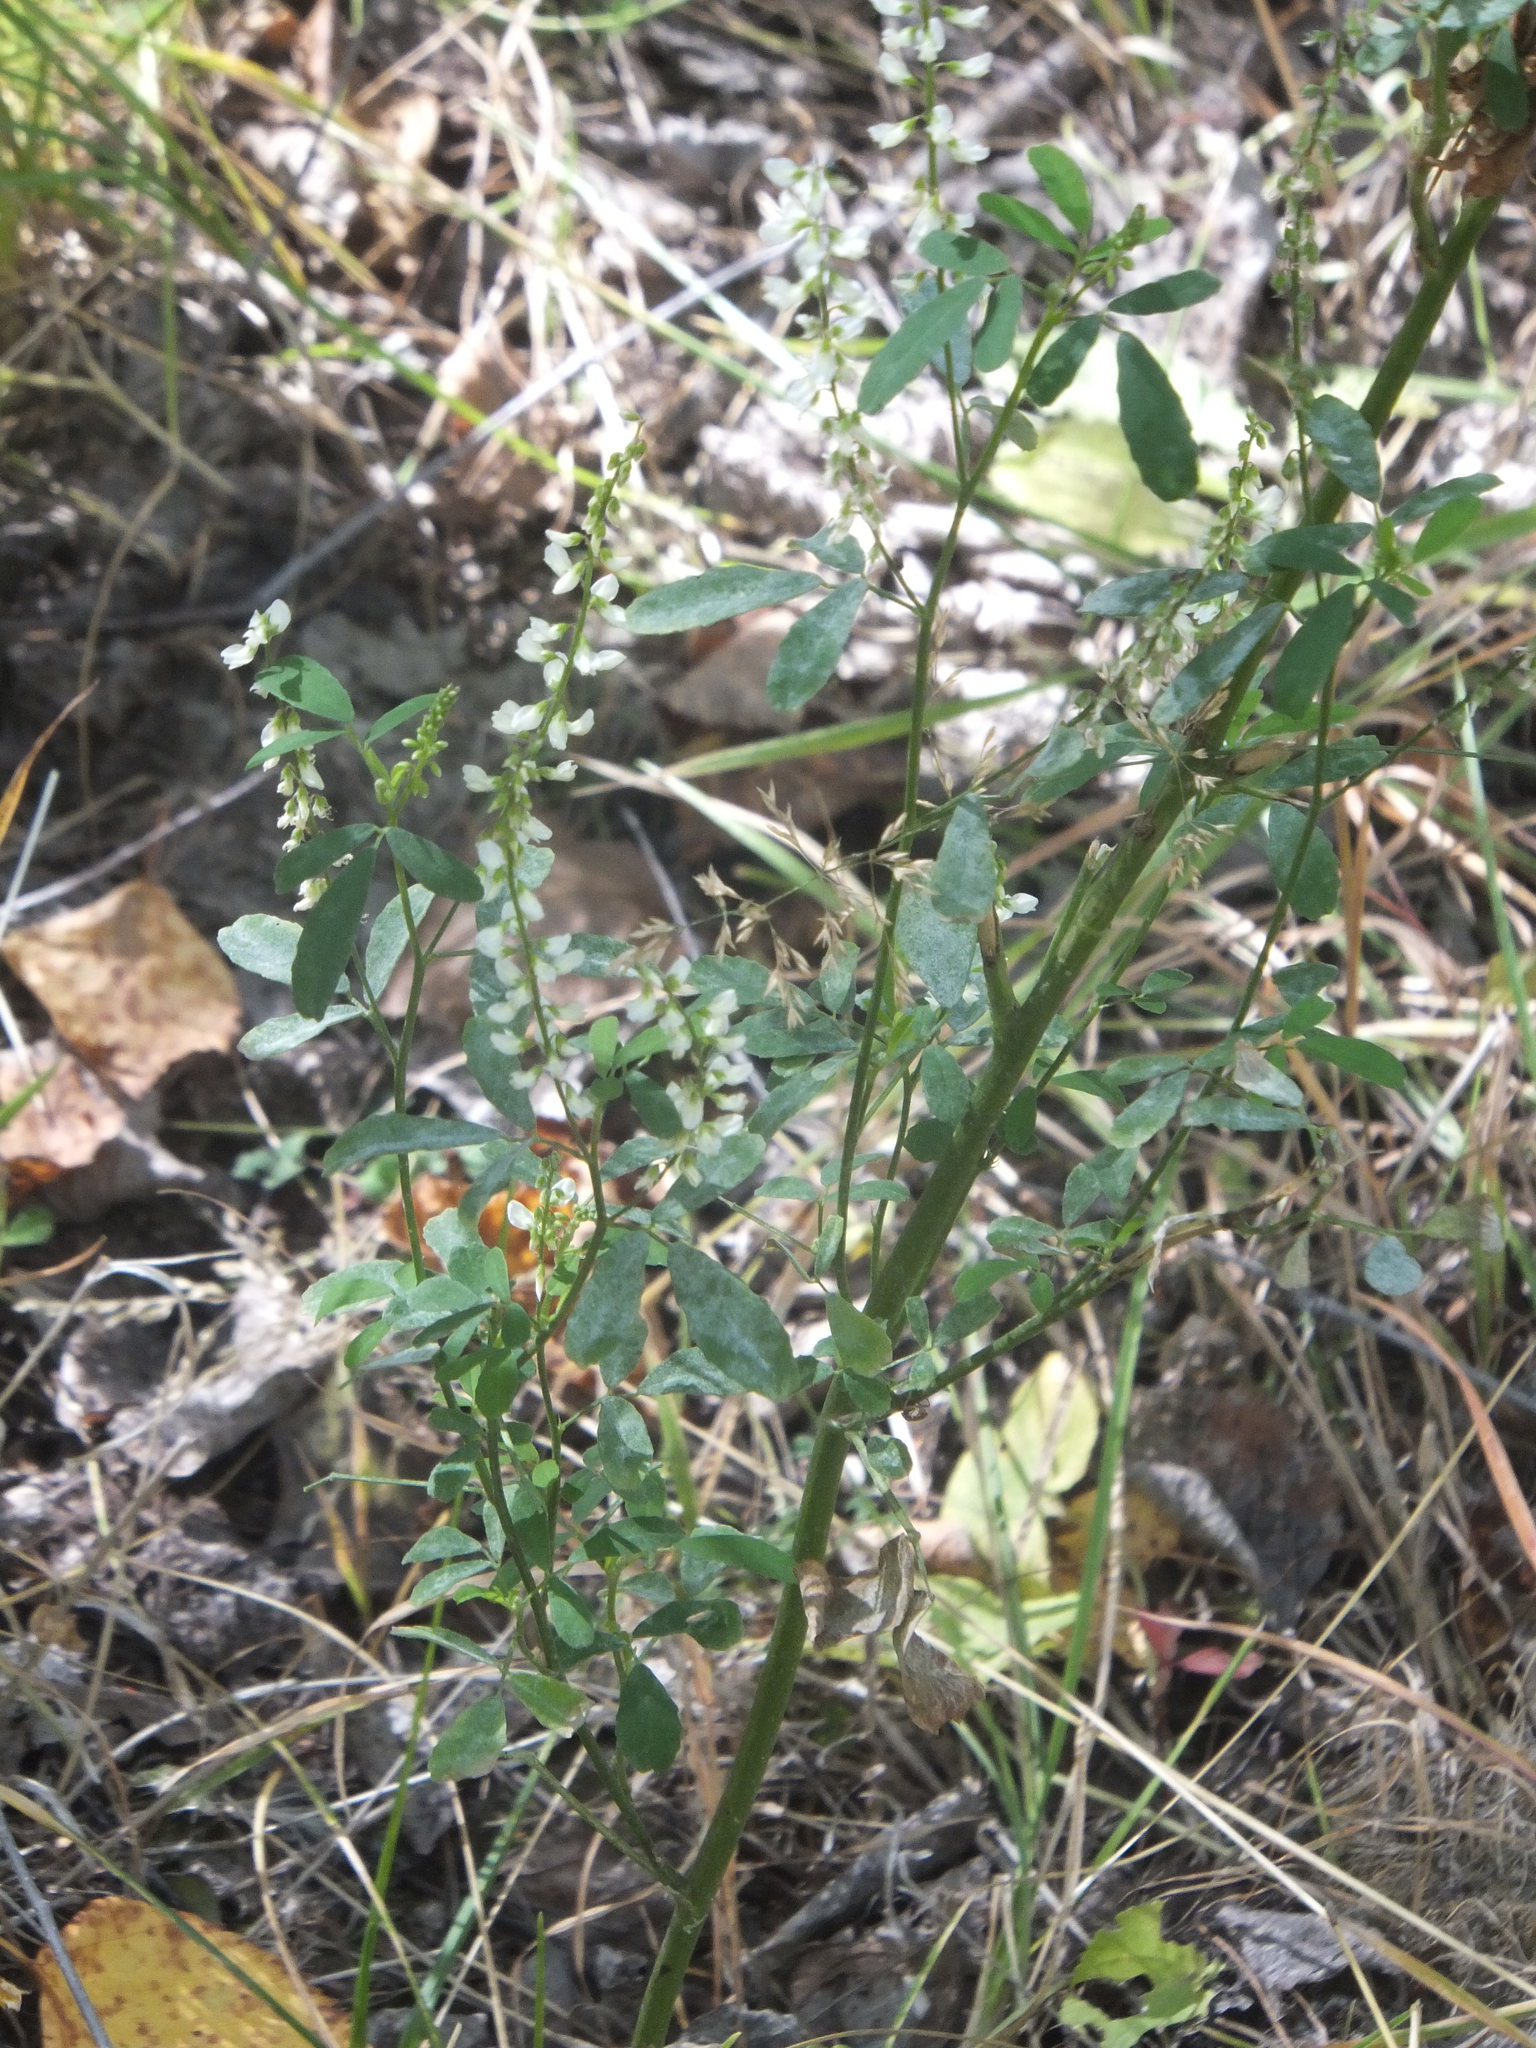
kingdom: Plantae
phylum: Tracheophyta
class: Magnoliopsida
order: Fabales
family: Fabaceae
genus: Melilotus
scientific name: Melilotus albus
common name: White melilot
